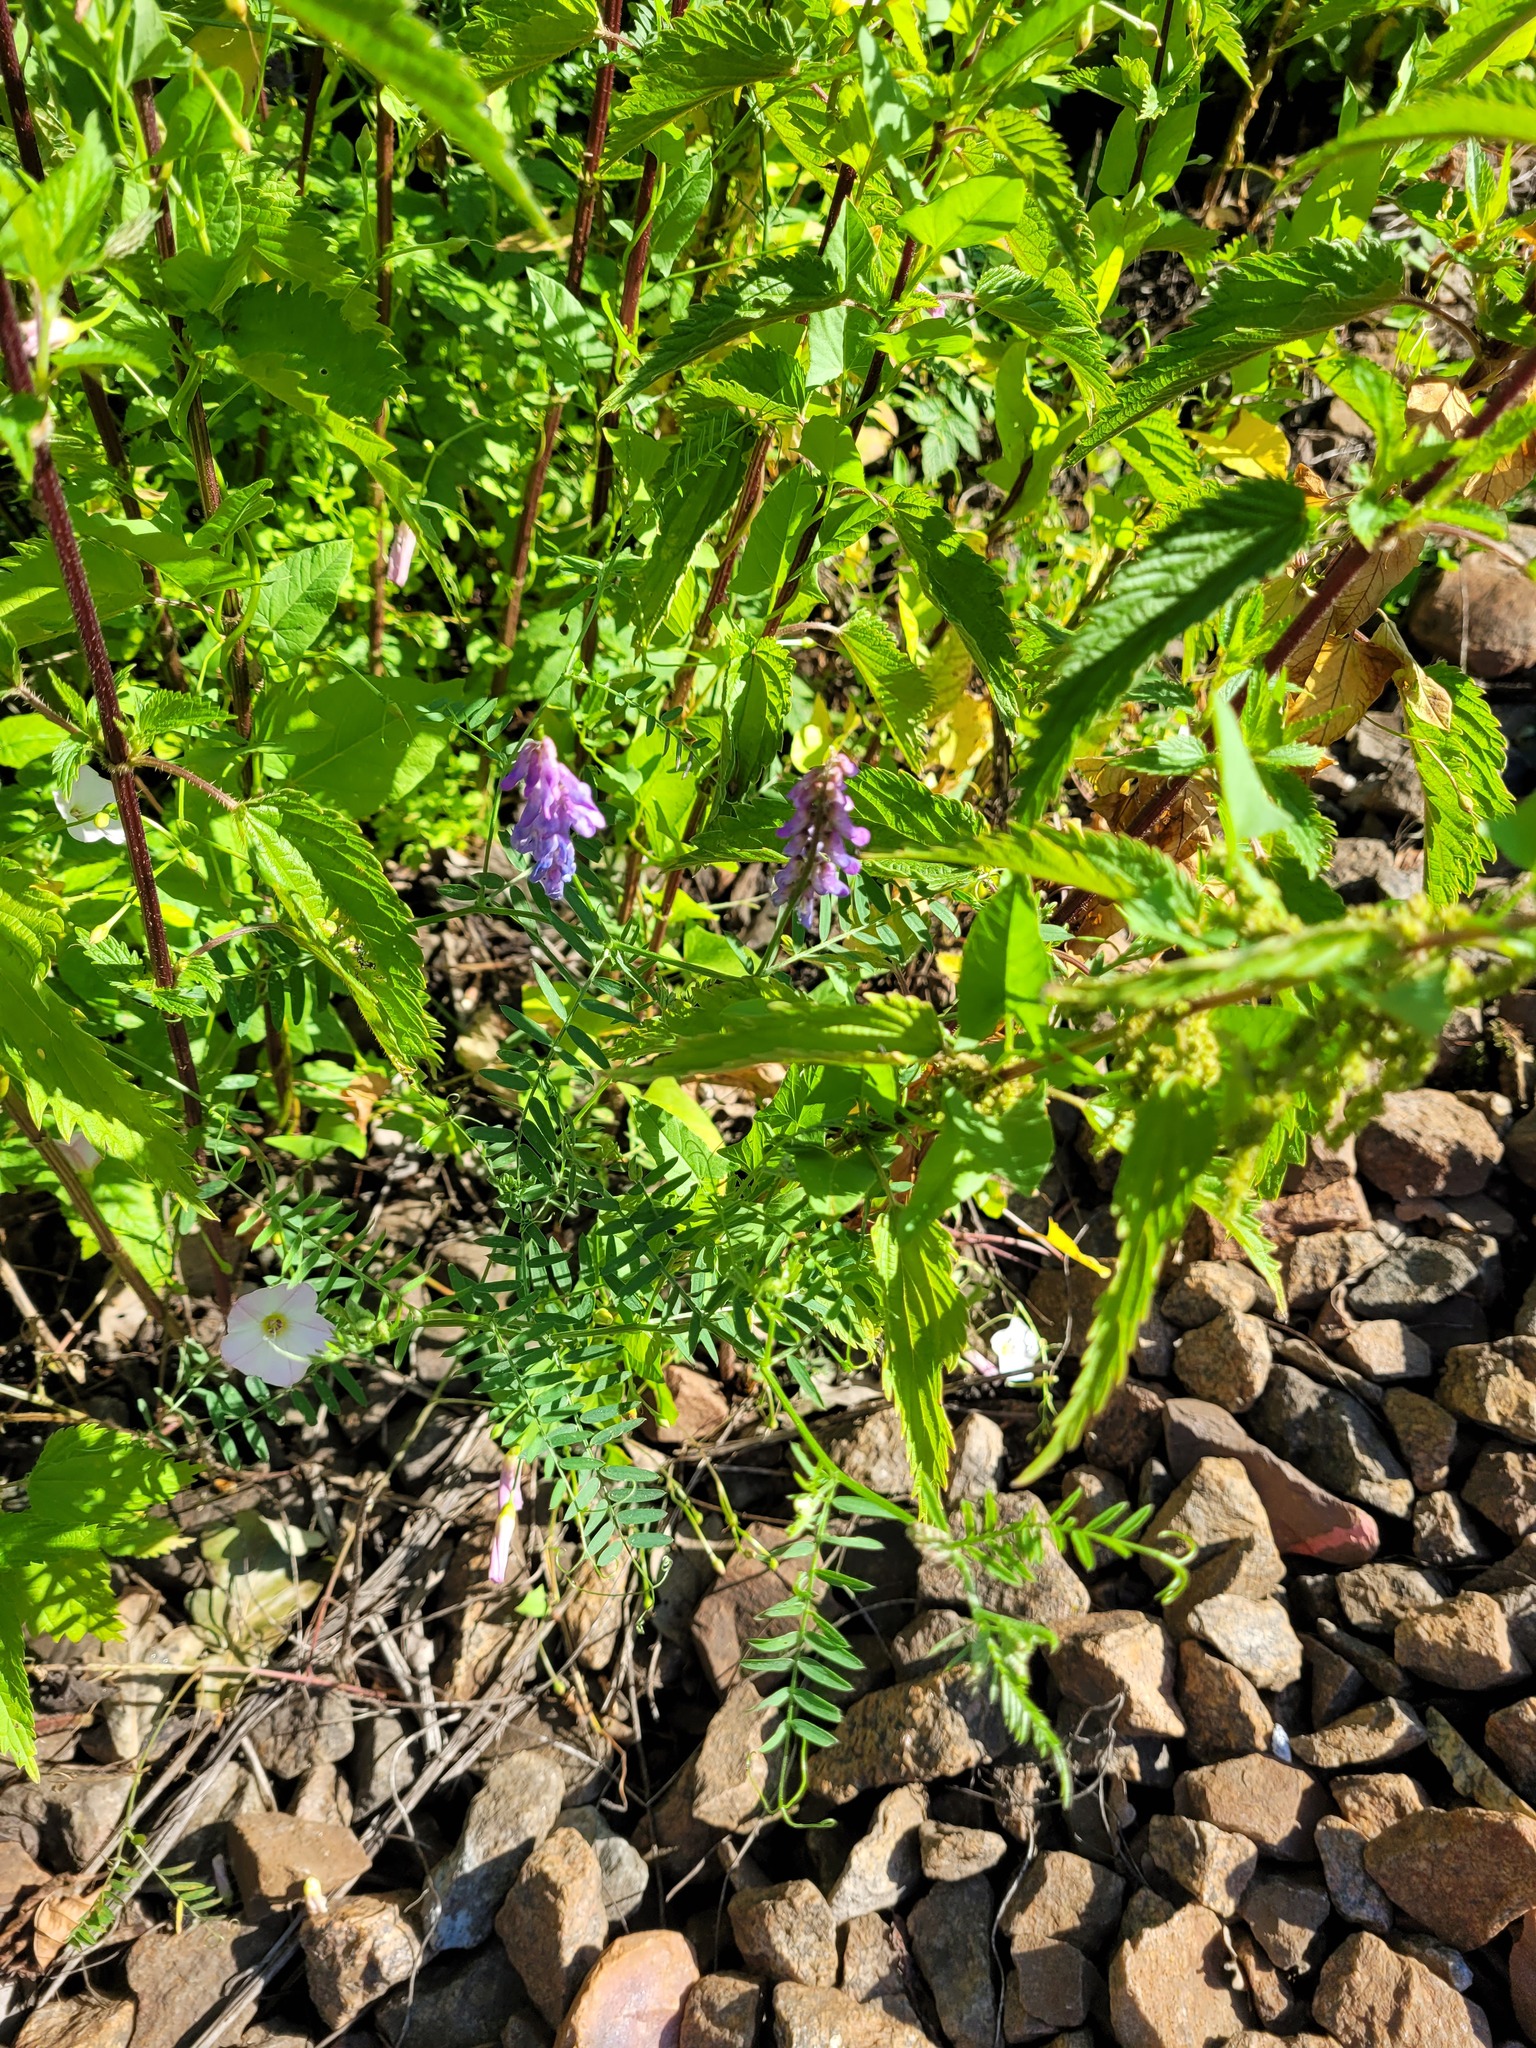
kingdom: Plantae
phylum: Tracheophyta
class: Magnoliopsida
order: Fabales
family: Fabaceae
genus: Vicia
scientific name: Vicia cracca
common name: Bird vetch
